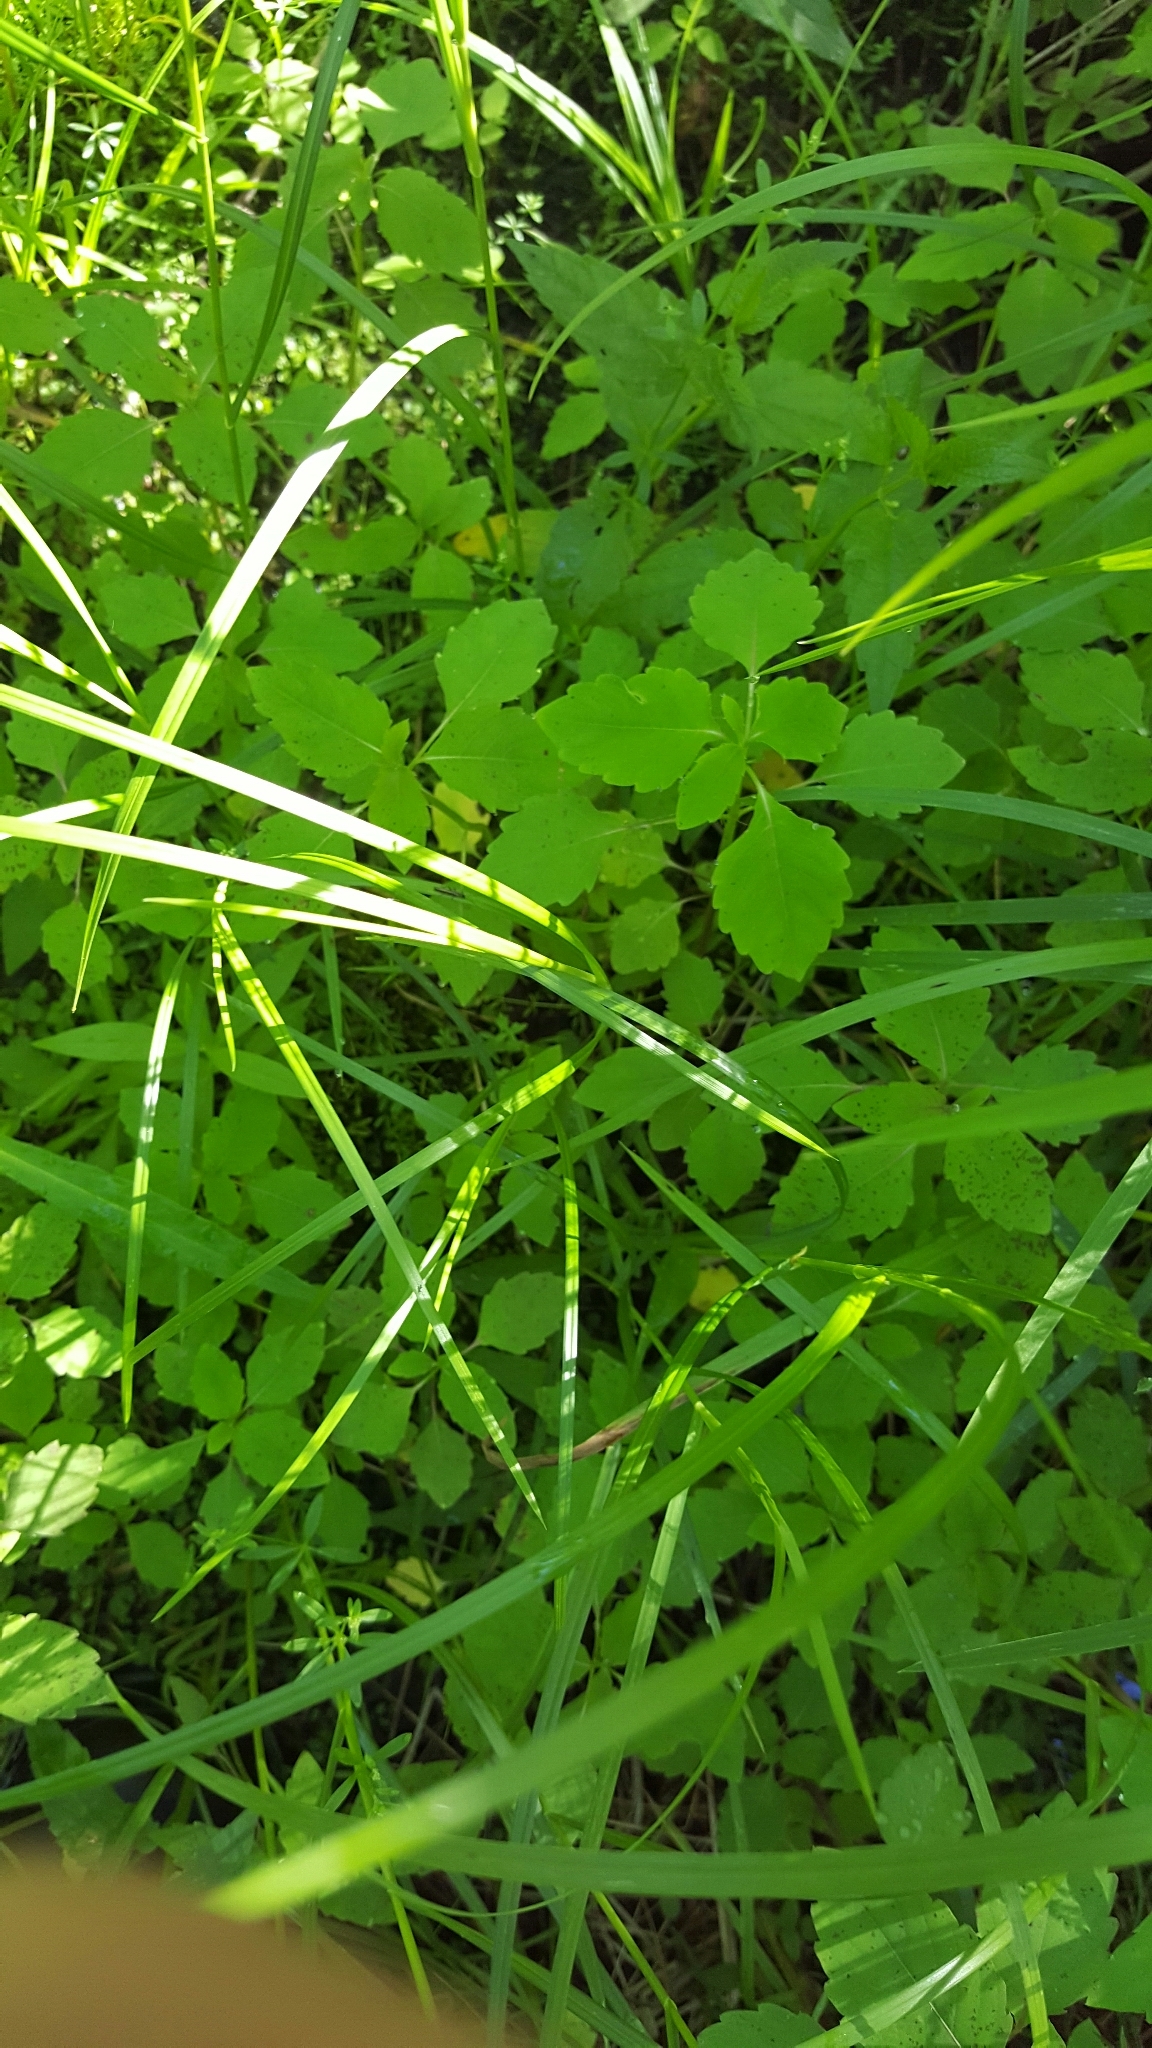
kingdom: Plantae
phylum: Tracheophyta
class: Magnoliopsida
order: Ericales
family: Balsaminaceae
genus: Impatiens
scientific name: Impatiens capensis
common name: Orange balsam
